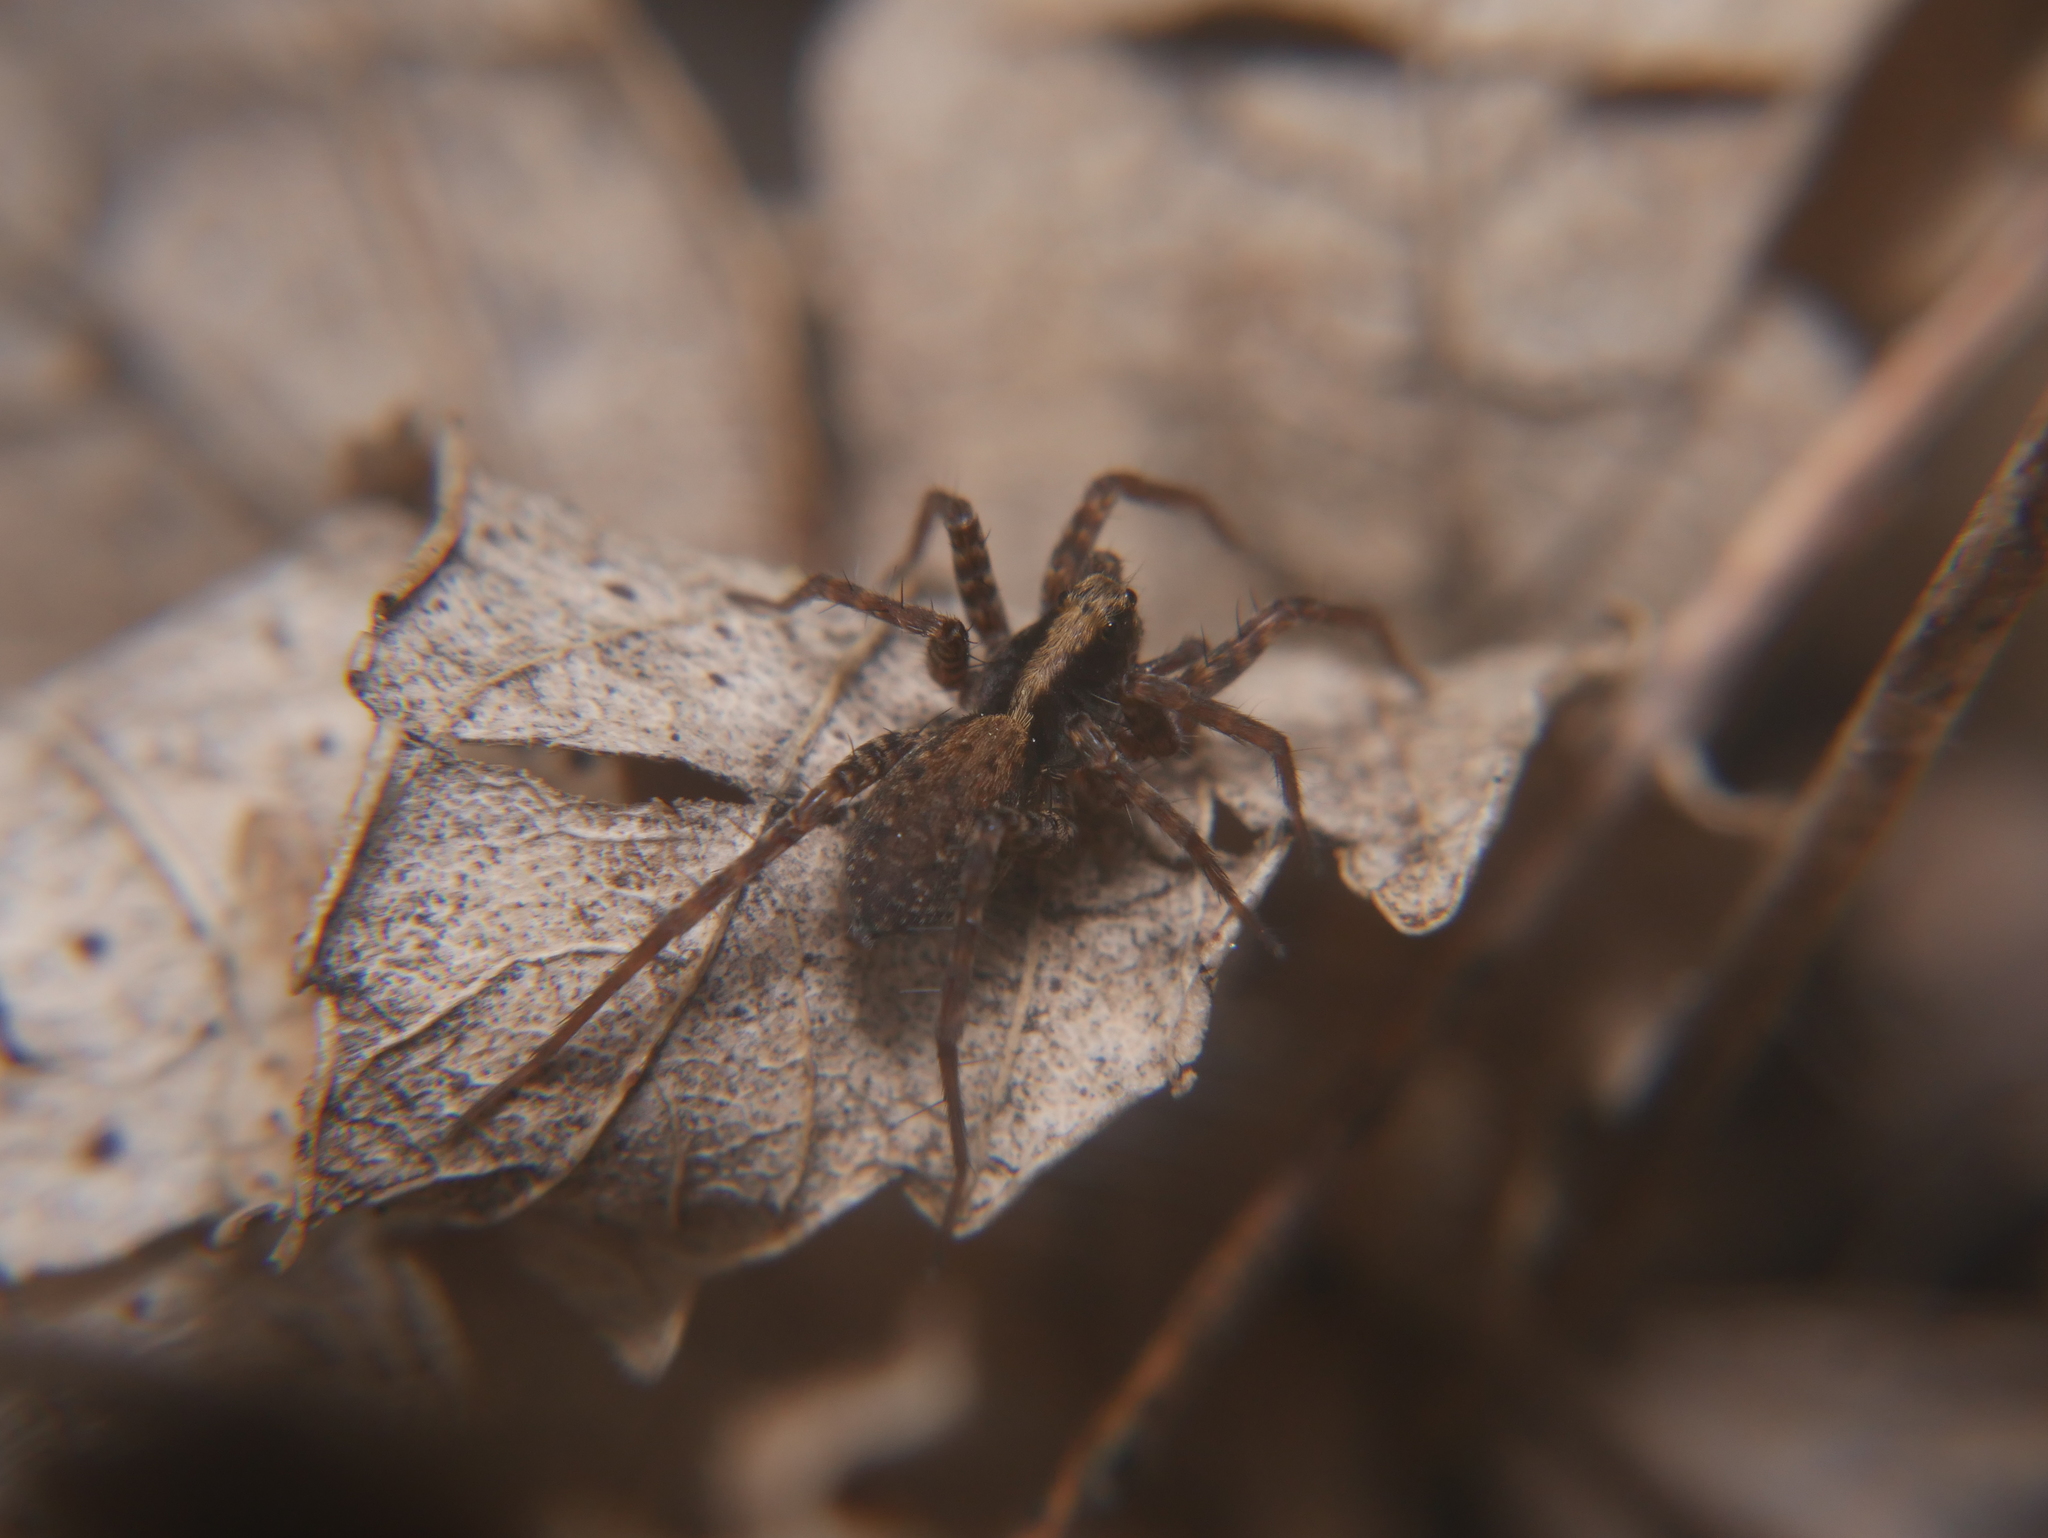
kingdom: Animalia
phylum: Arthropoda
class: Arachnida
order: Araneae
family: Lycosidae
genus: Pardosa
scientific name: Pardosa
